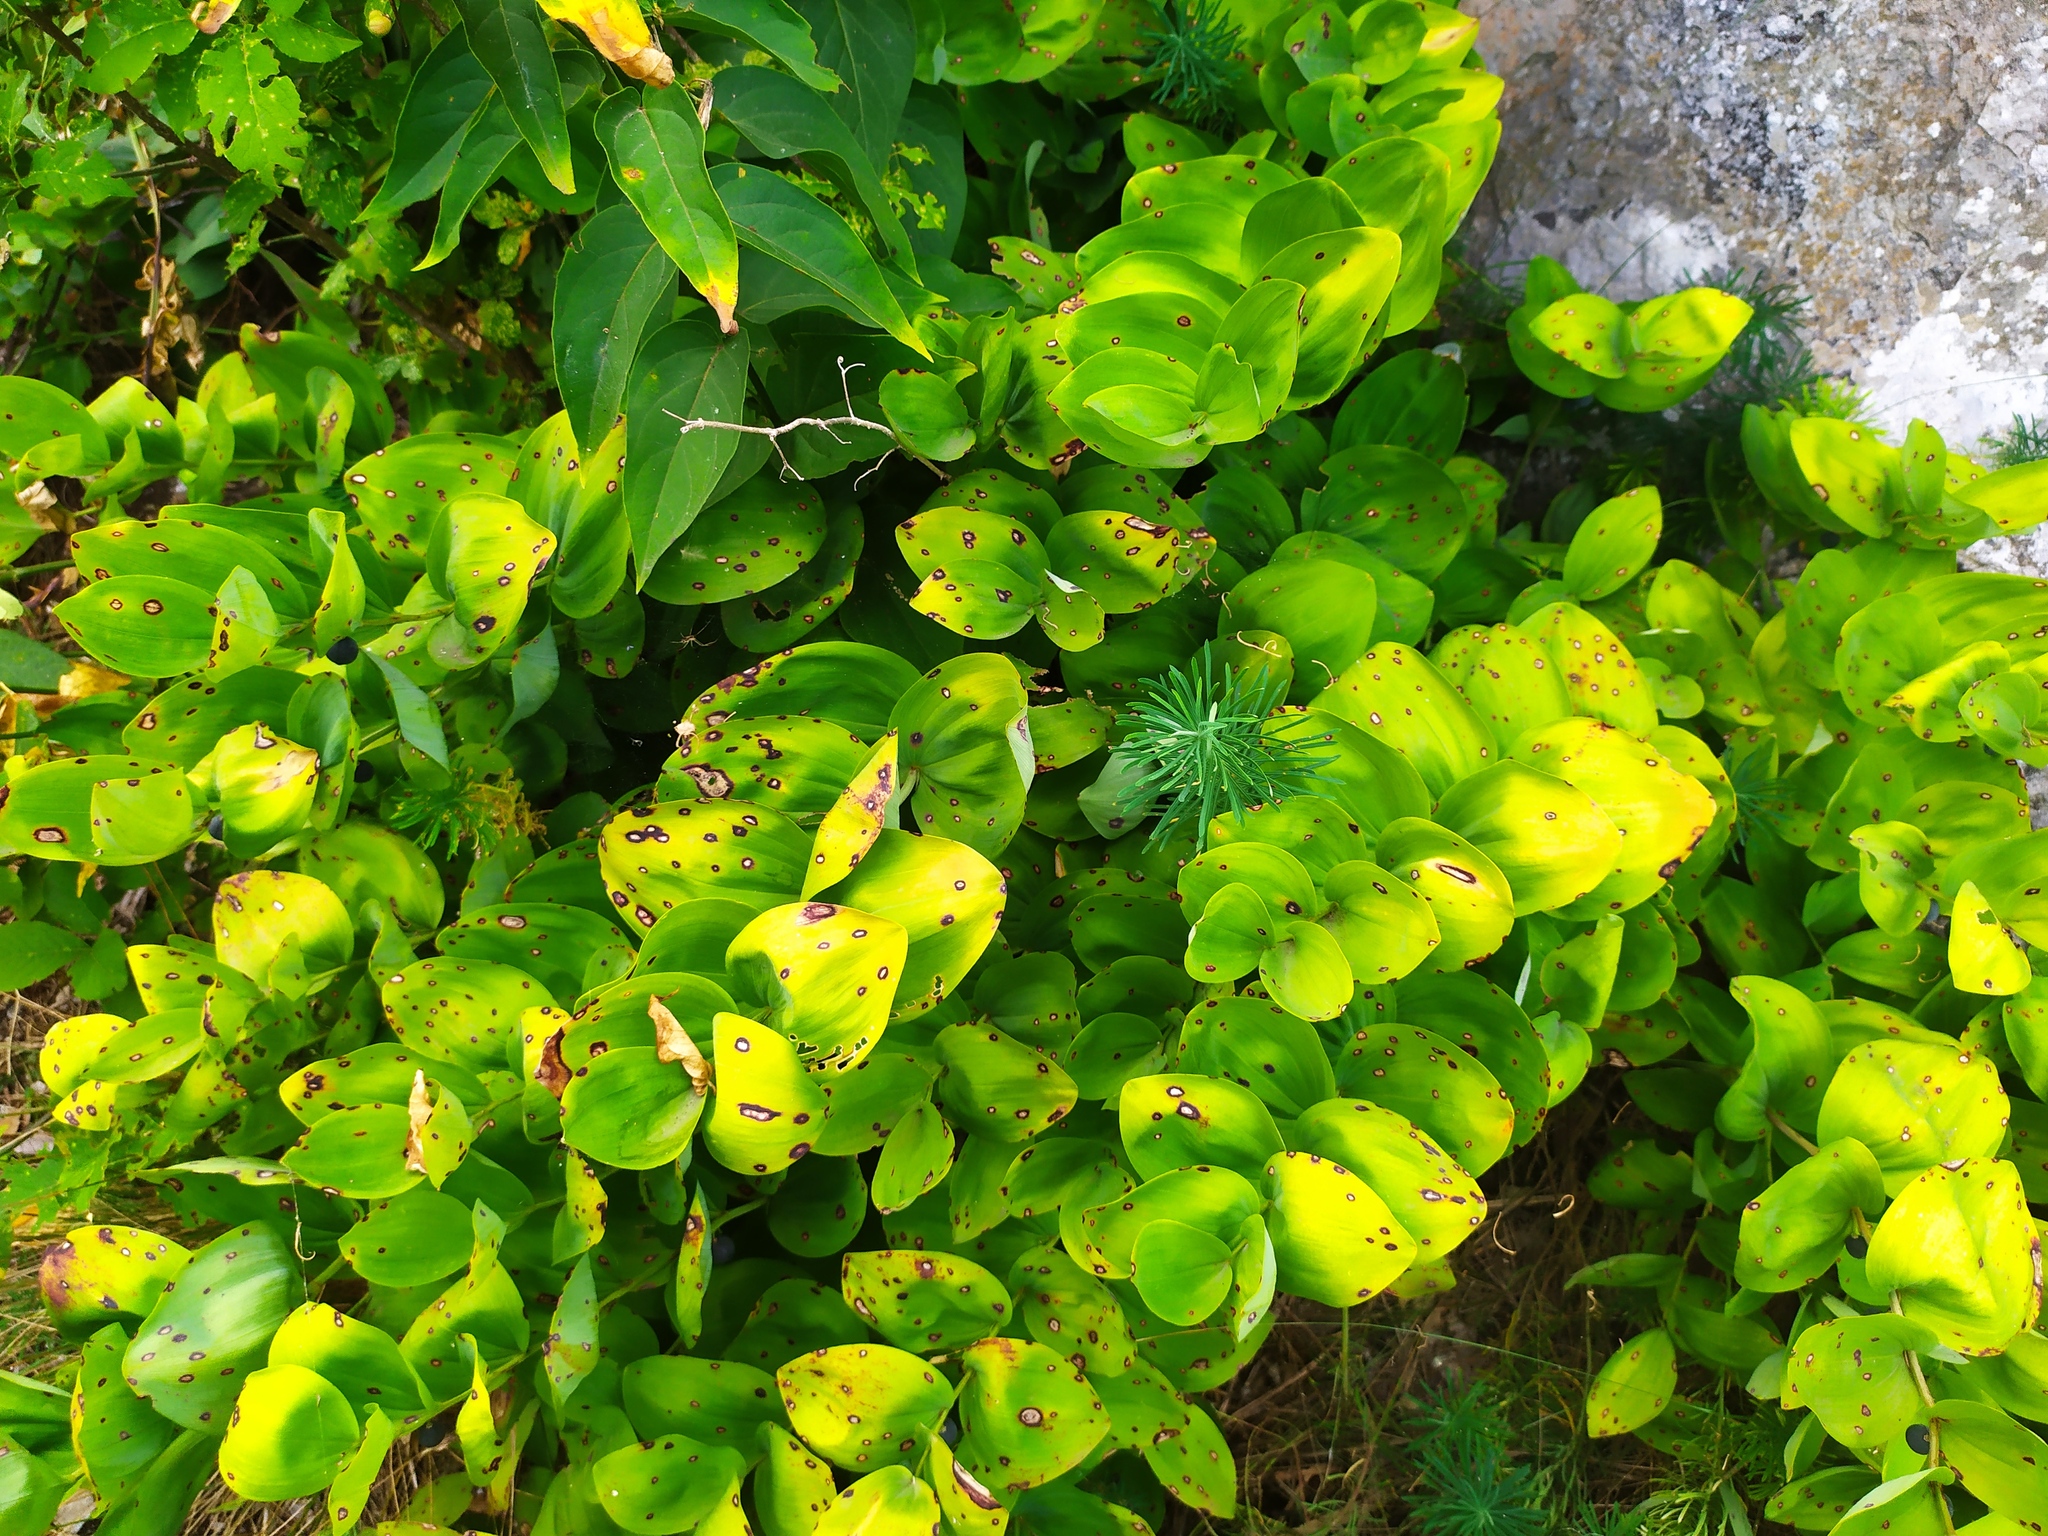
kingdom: Plantae
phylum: Tracheophyta
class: Liliopsida
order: Asparagales
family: Asparagaceae
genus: Polygonatum
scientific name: Polygonatum odoratum
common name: Angular solomon's-seal
